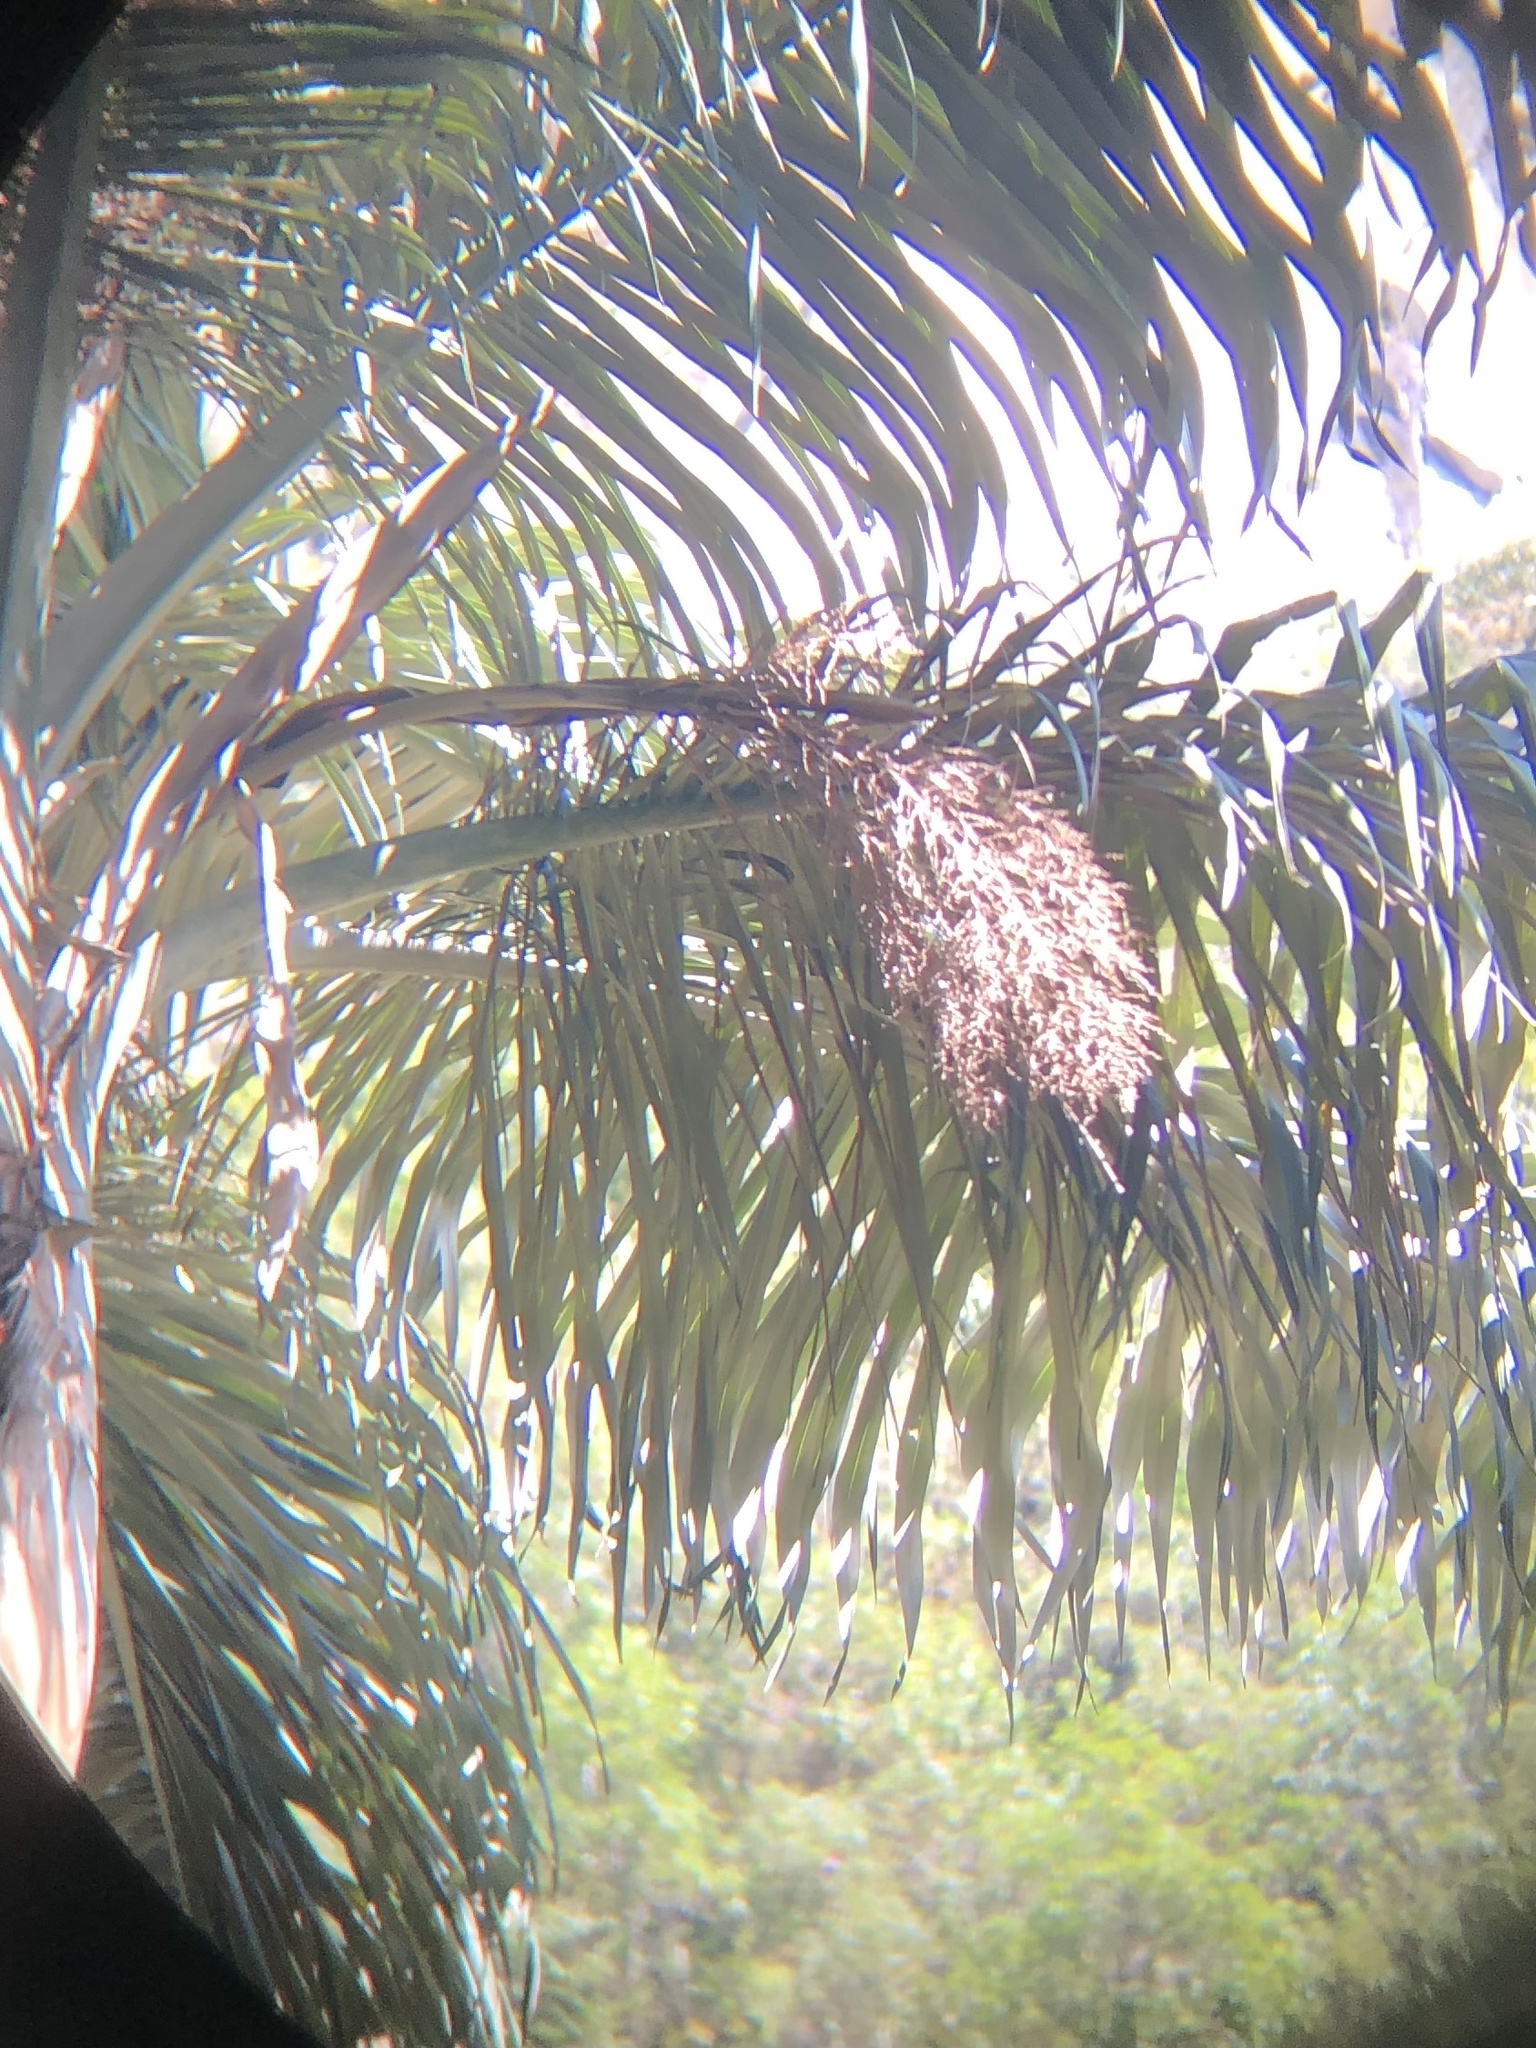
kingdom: Plantae
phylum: Tracheophyta
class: Liliopsida
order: Arecales
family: Arecaceae
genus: Ceroxylon
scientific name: Ceroxylon pityrophyllum
